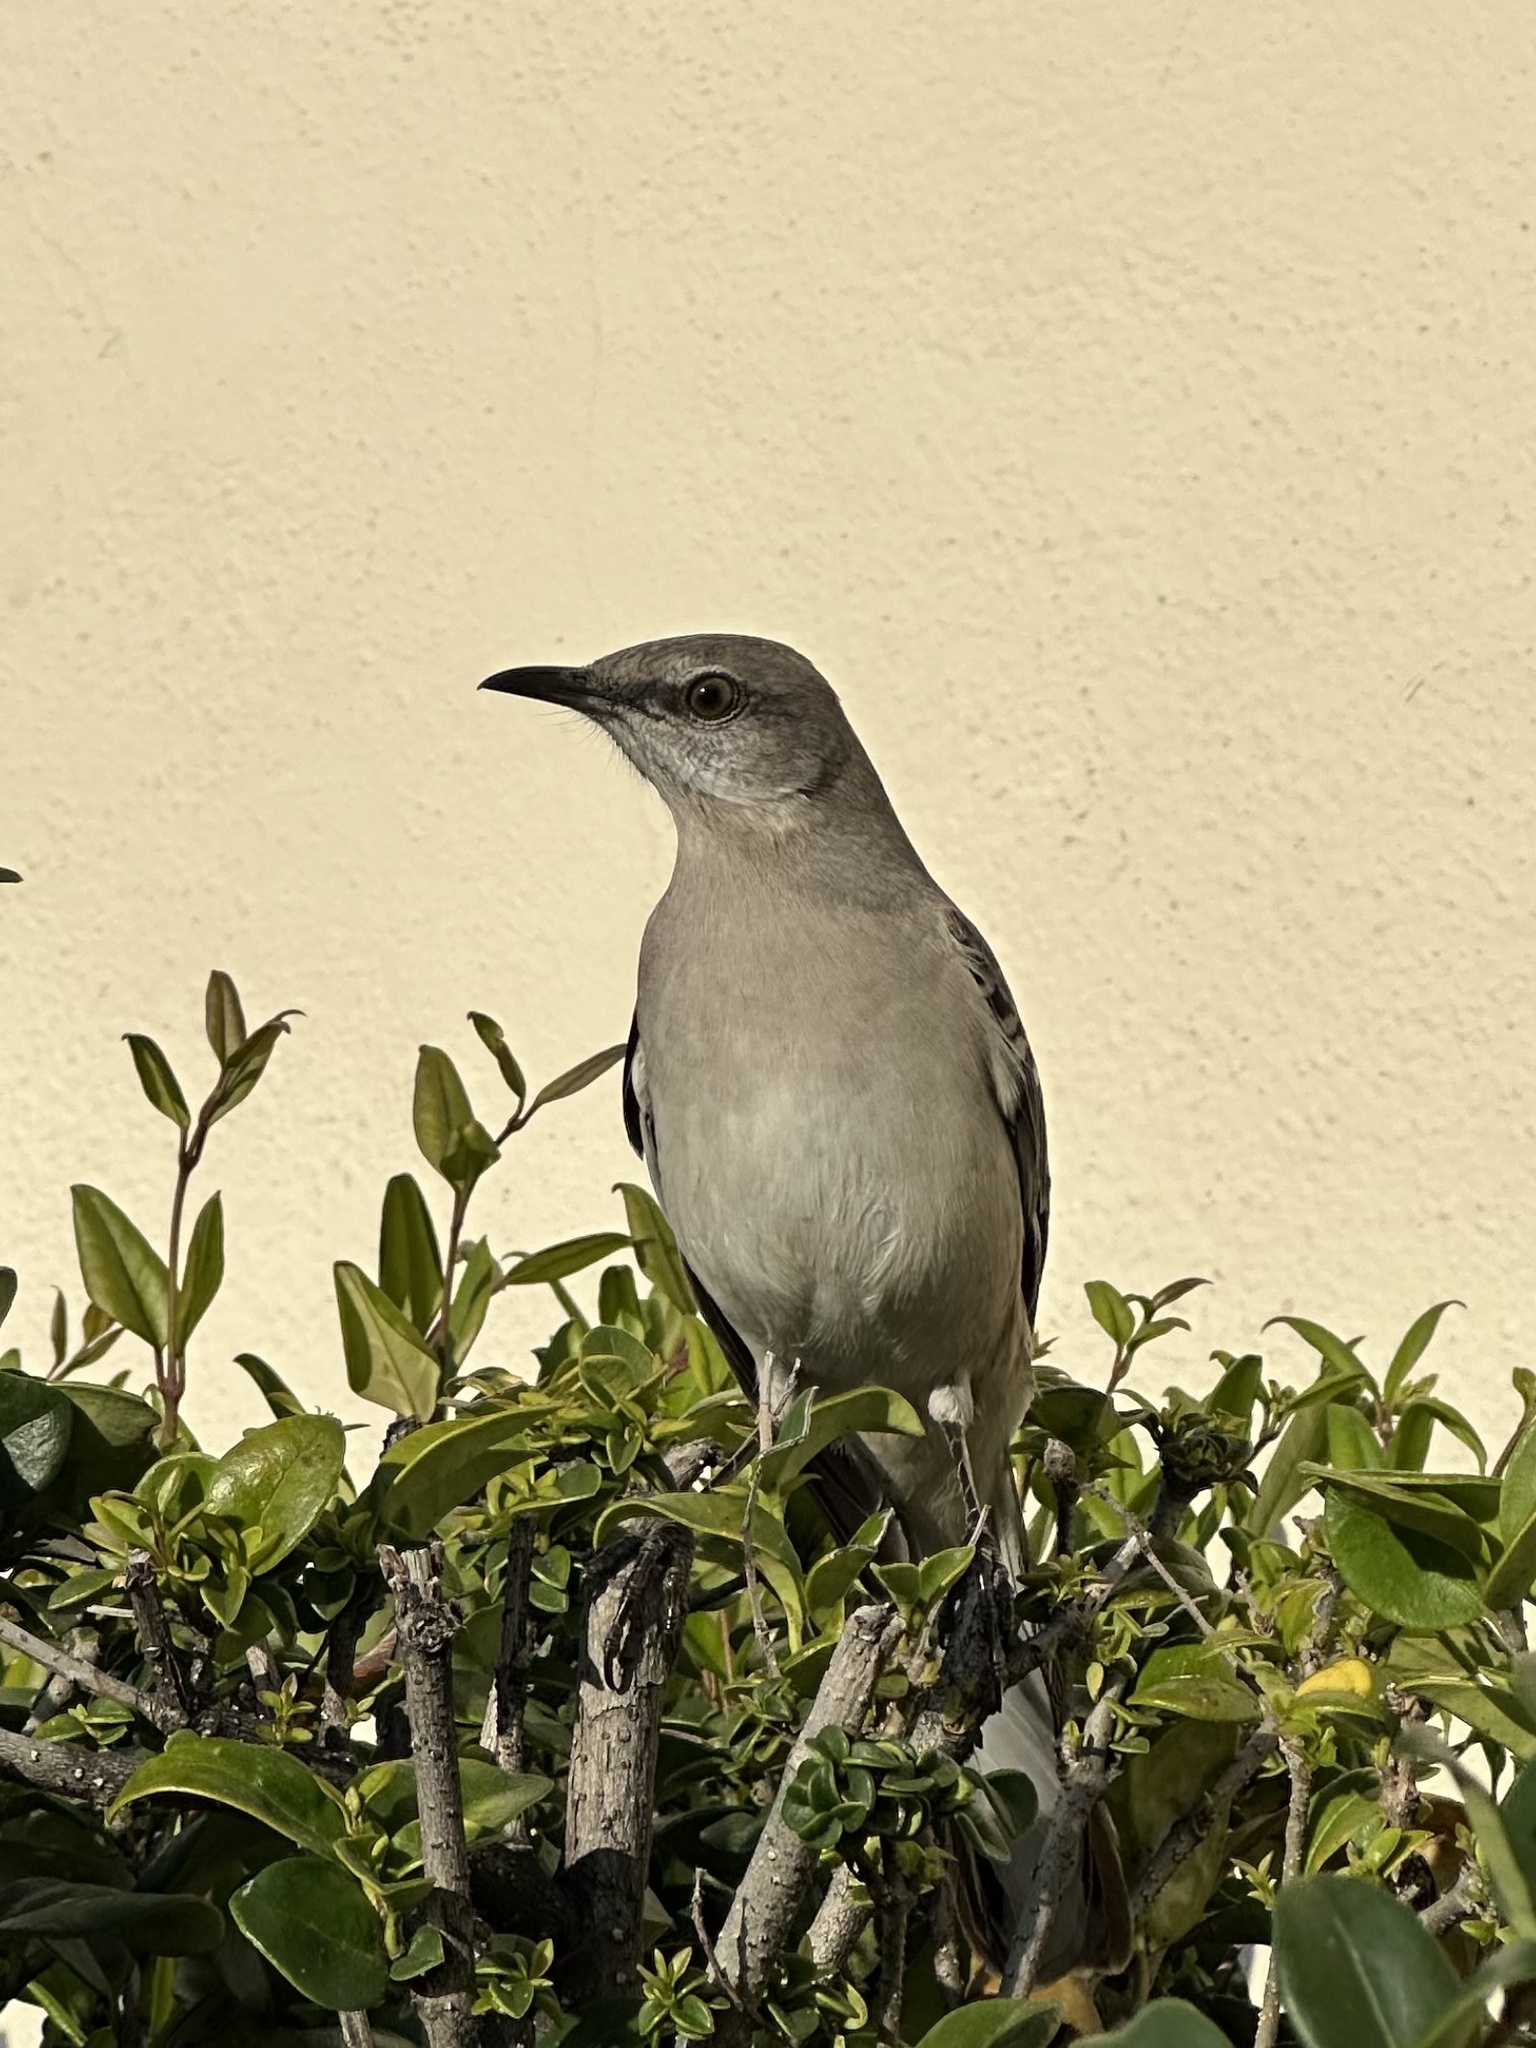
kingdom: Animalia
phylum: Chordata
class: Aves
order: Passeriformes
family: Mimidae
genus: Mimus
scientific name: Mimus polyglottos
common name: Northern mockingbird
